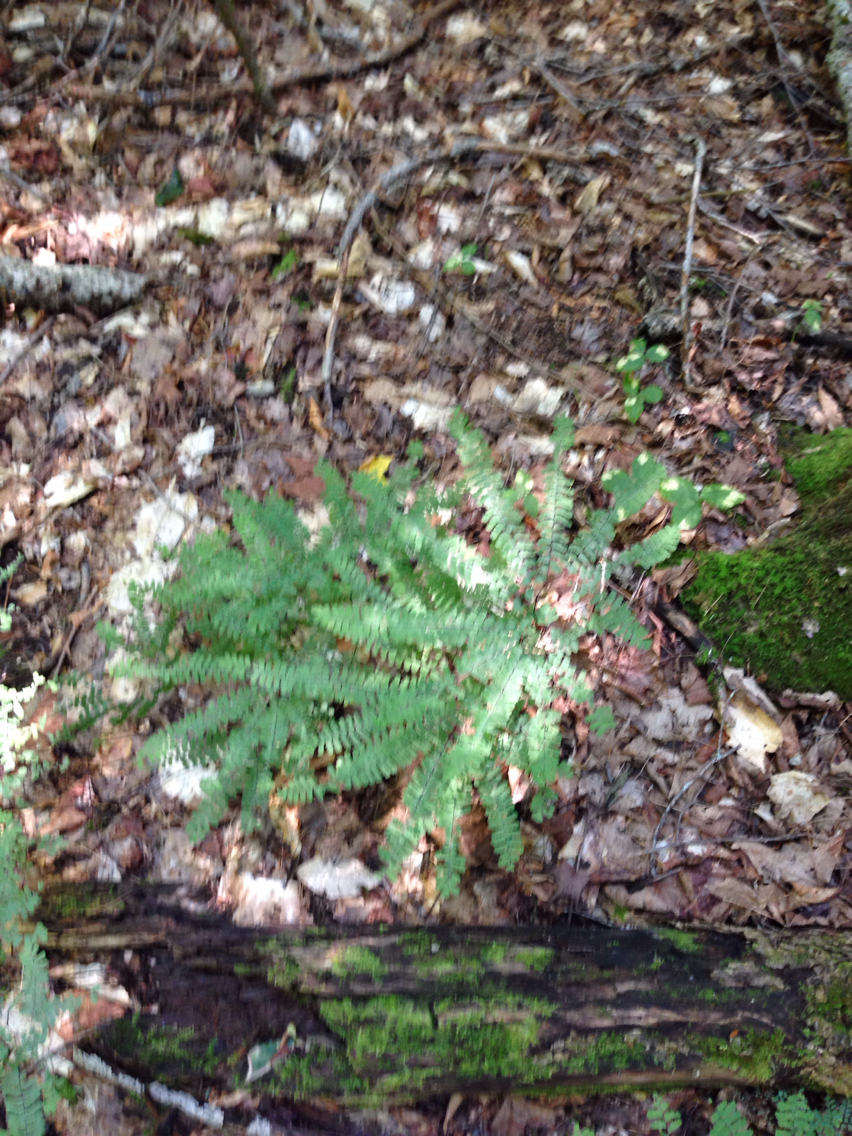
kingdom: Plantae
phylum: Tracheophyta
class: Polypodiopsida
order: Polypodiales
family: Pteridaceae
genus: Adiantum
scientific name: Adiantum pedatum
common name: Five-finger fern
